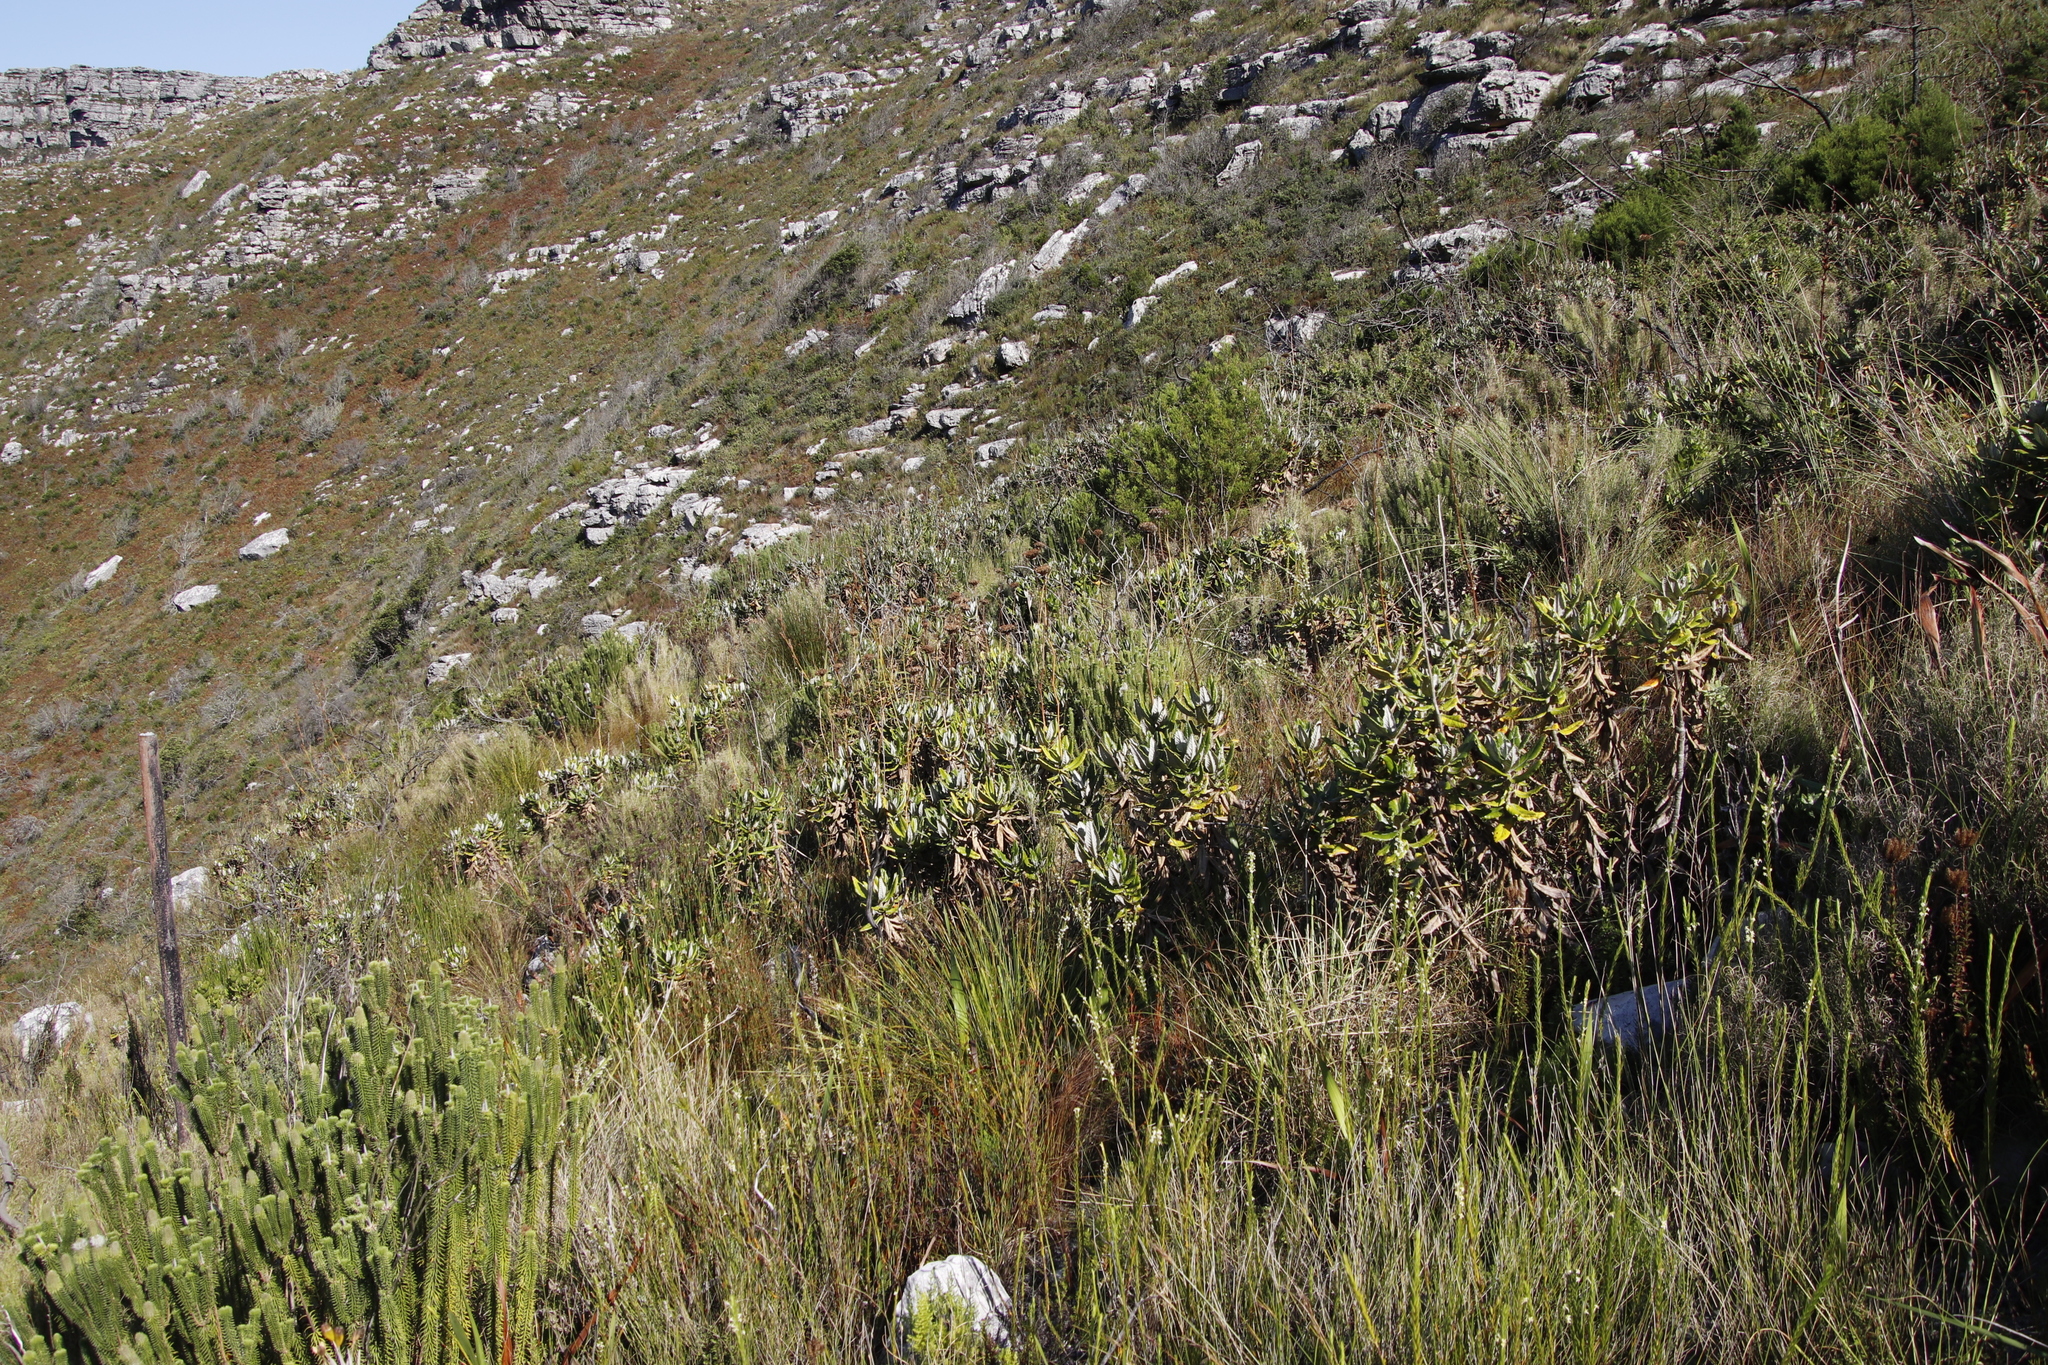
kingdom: Plantae
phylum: Tracheophyta
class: Magnoliopsida
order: Apiales
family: Apiaceae
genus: Hermas
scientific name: Hermas villosa
